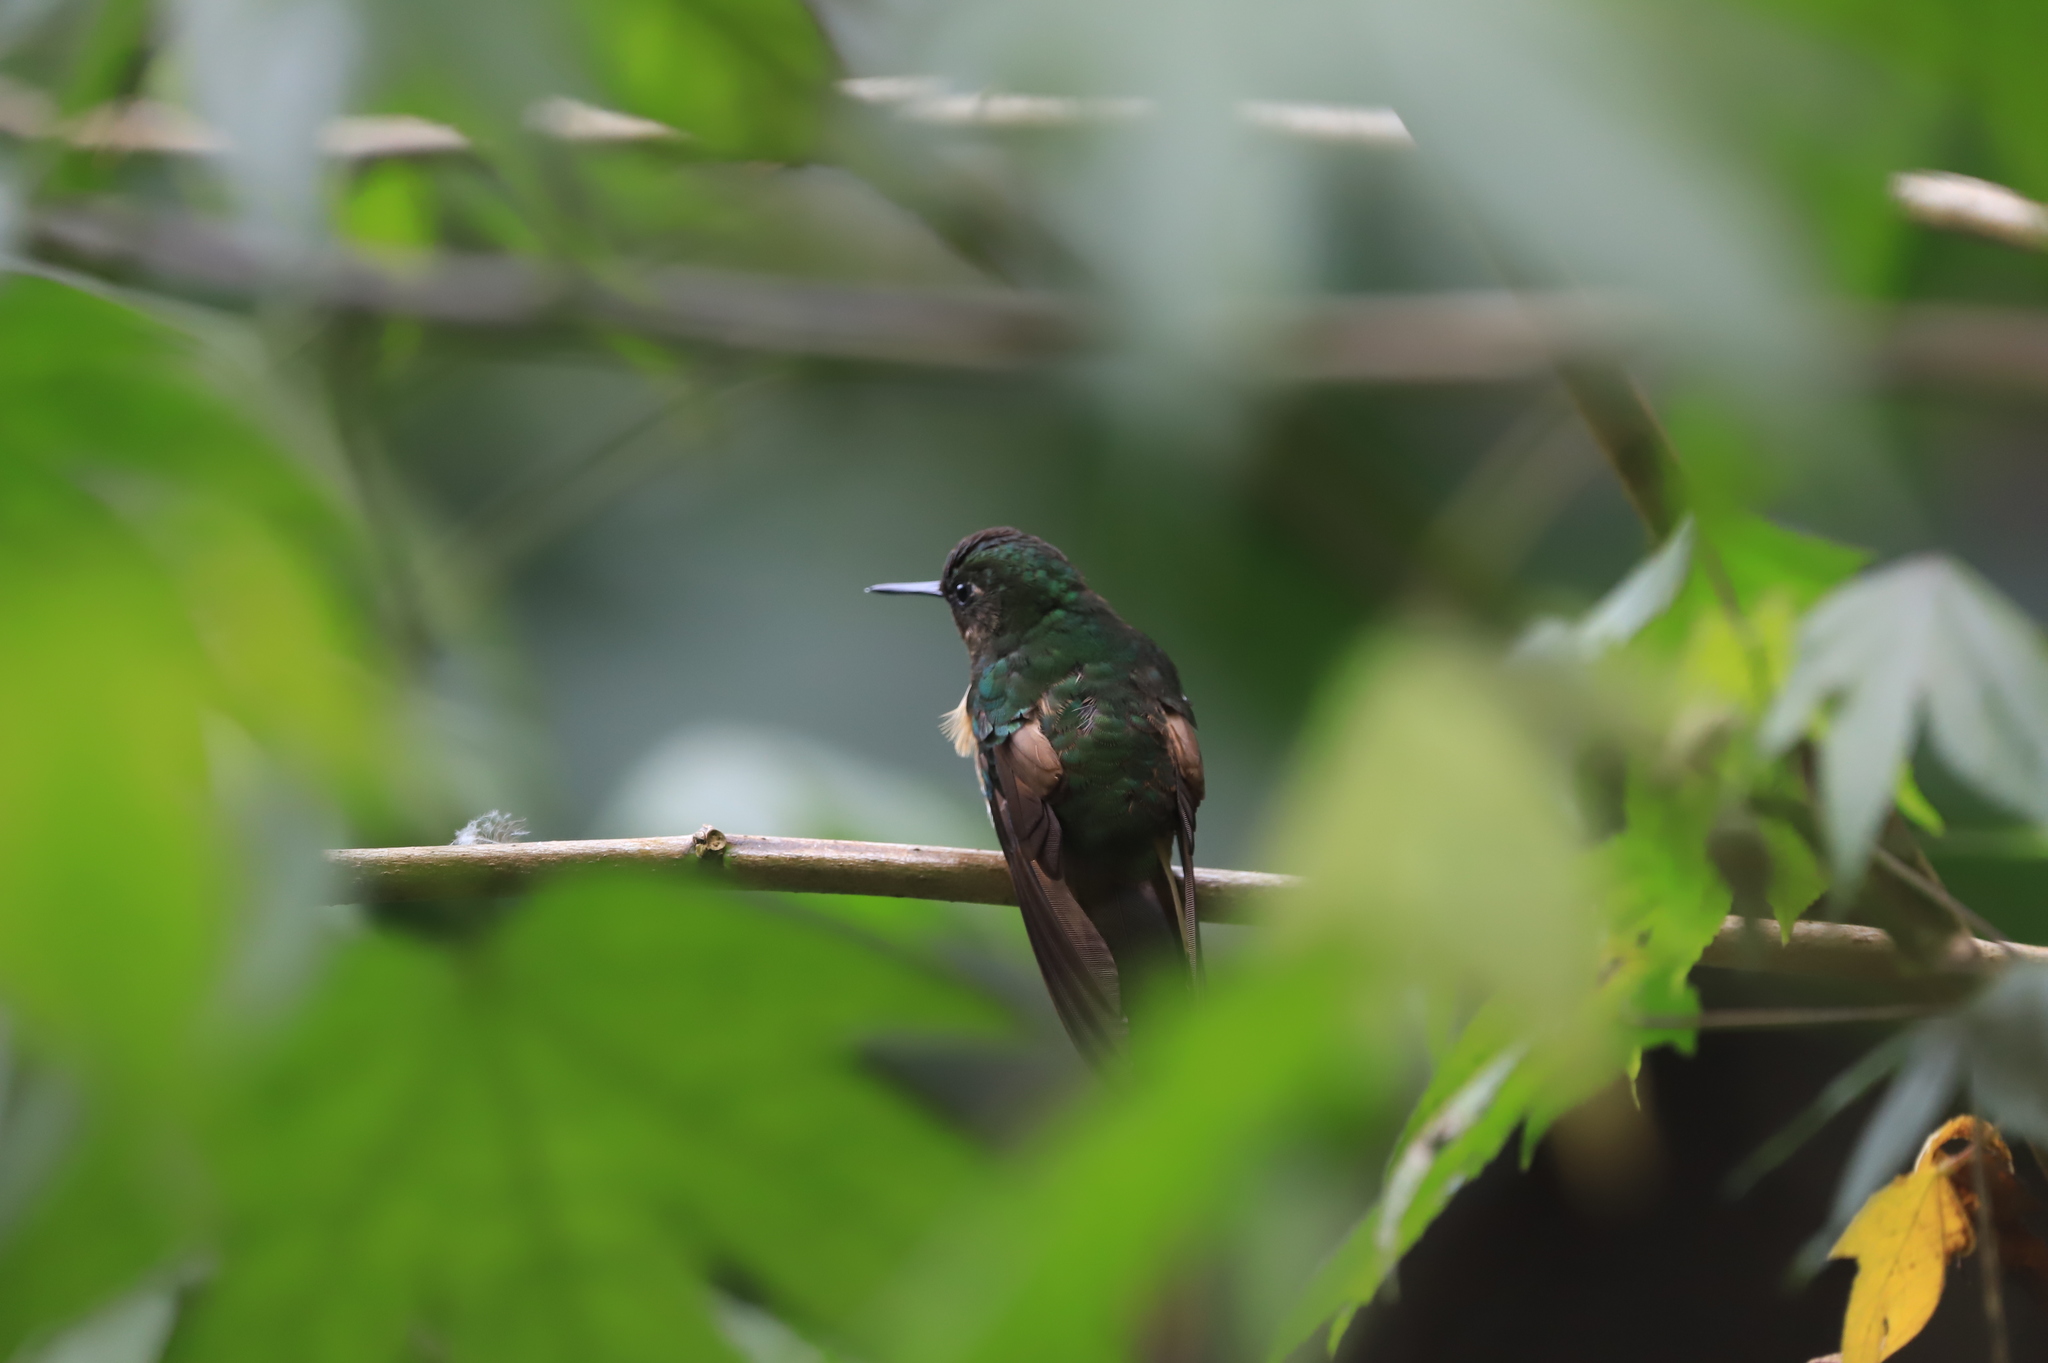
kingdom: Animalia
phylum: Chordata
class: Aves
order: Apodiformes
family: Trochilidae
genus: Boissonneaua
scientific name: Boissonneaua flavescens
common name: Buff-tailed coronet
